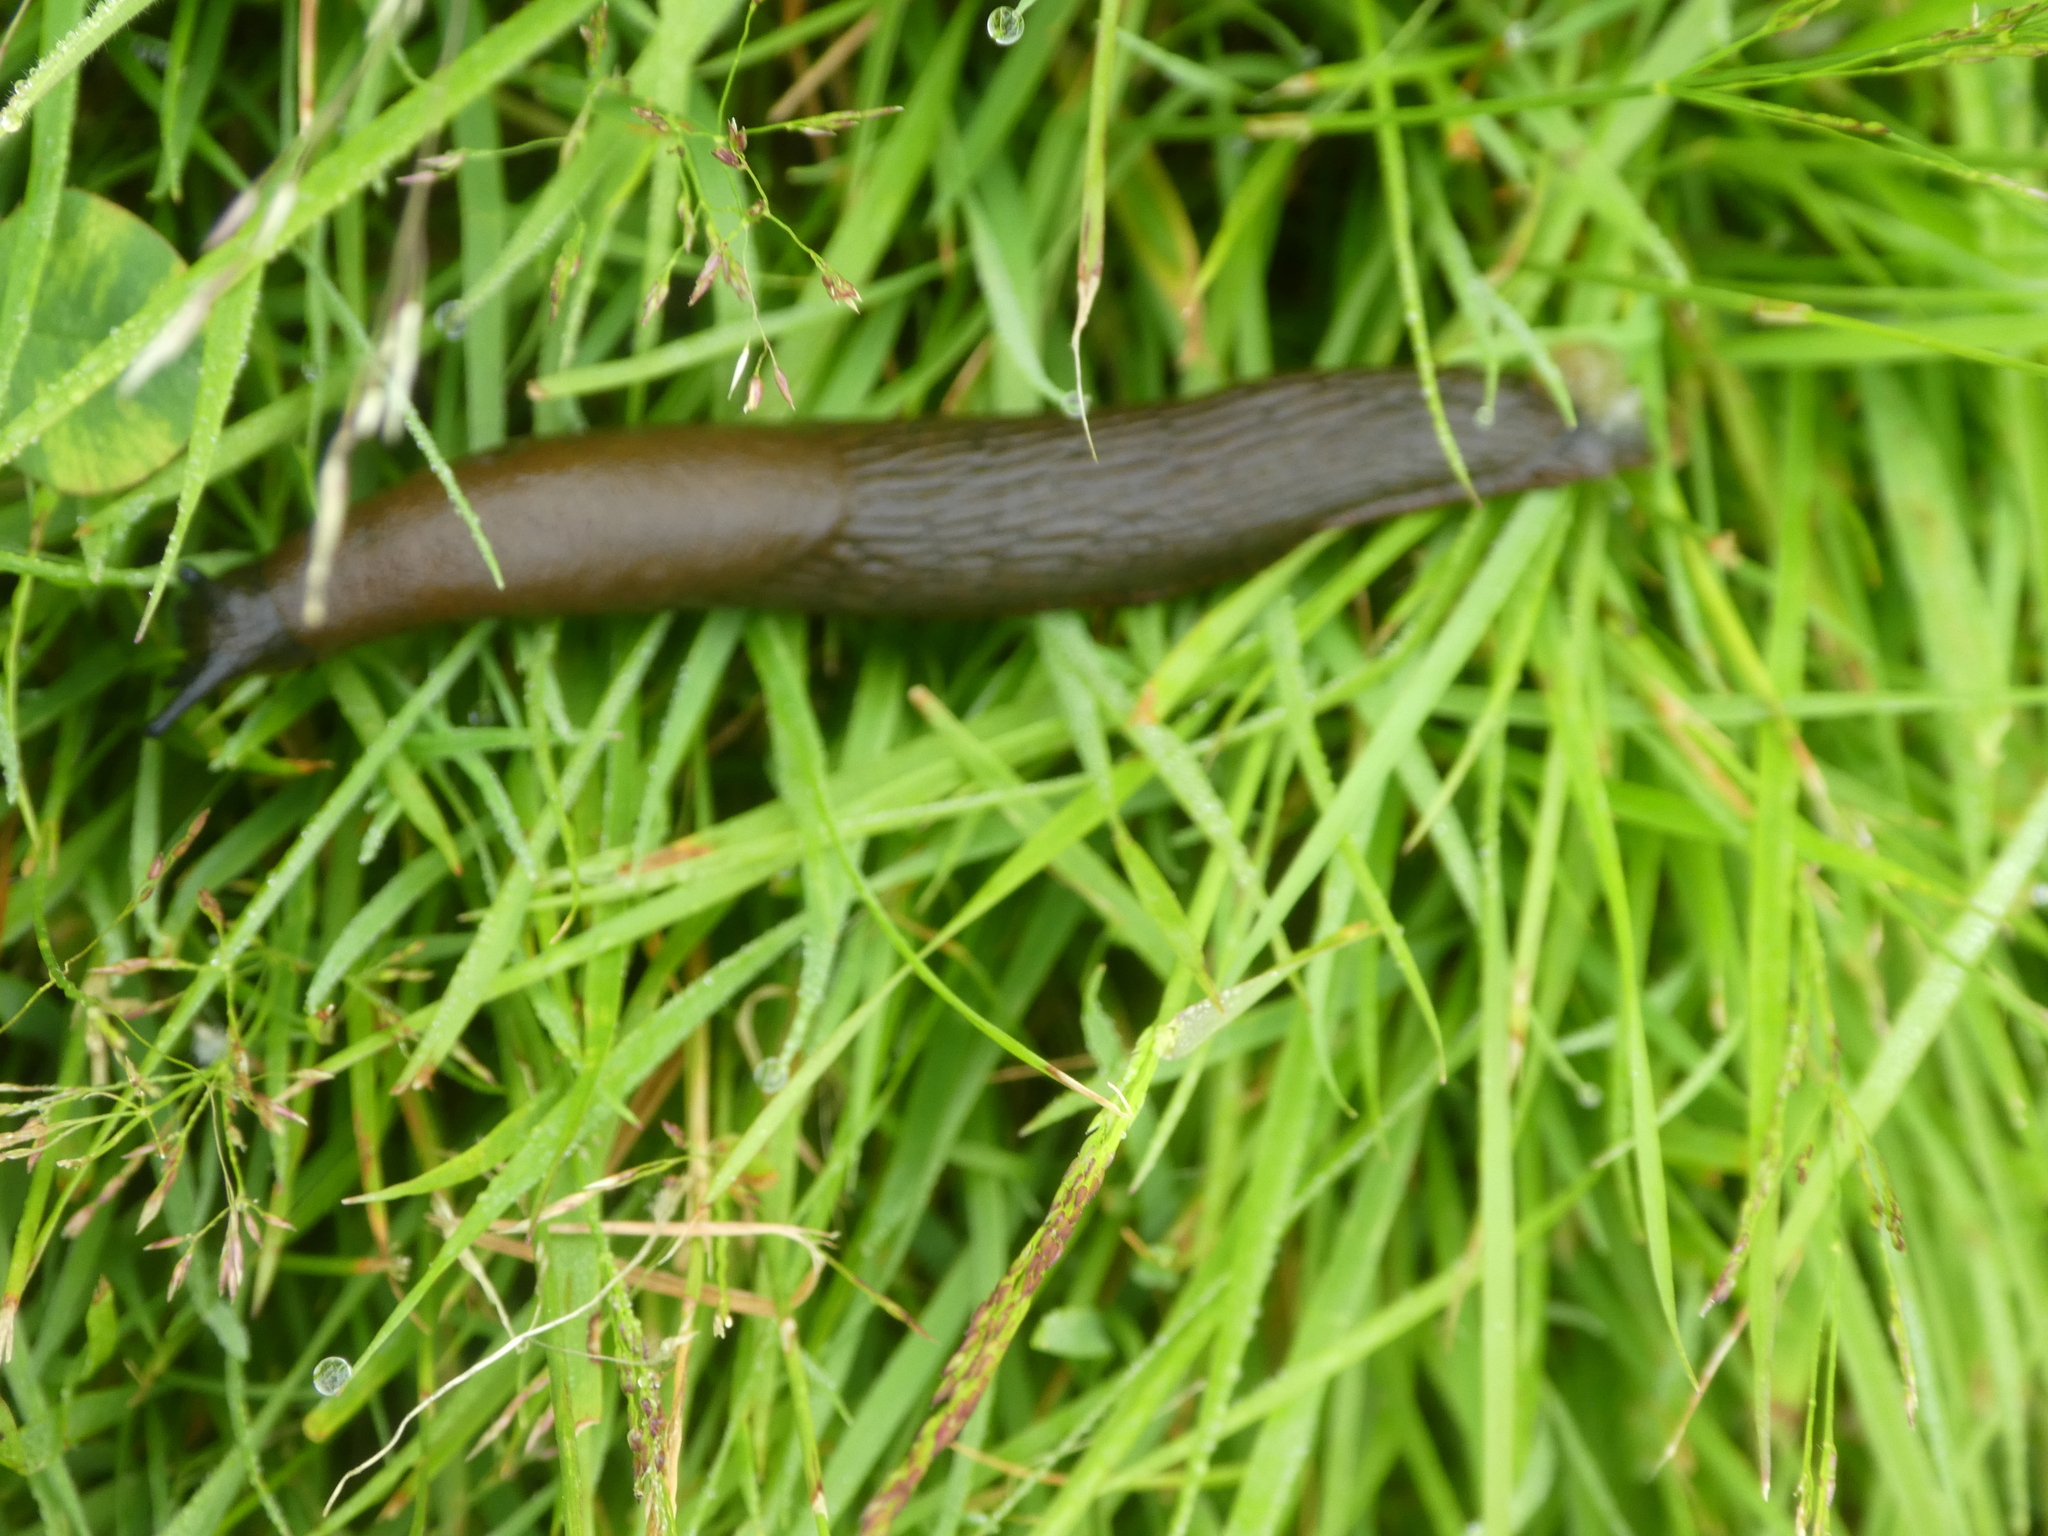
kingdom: Animalia
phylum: Mollusca
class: Gastropoda
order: Stylommatophora
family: Arionidae
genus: Arion
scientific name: Arion rufus
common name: Chocolate arion
